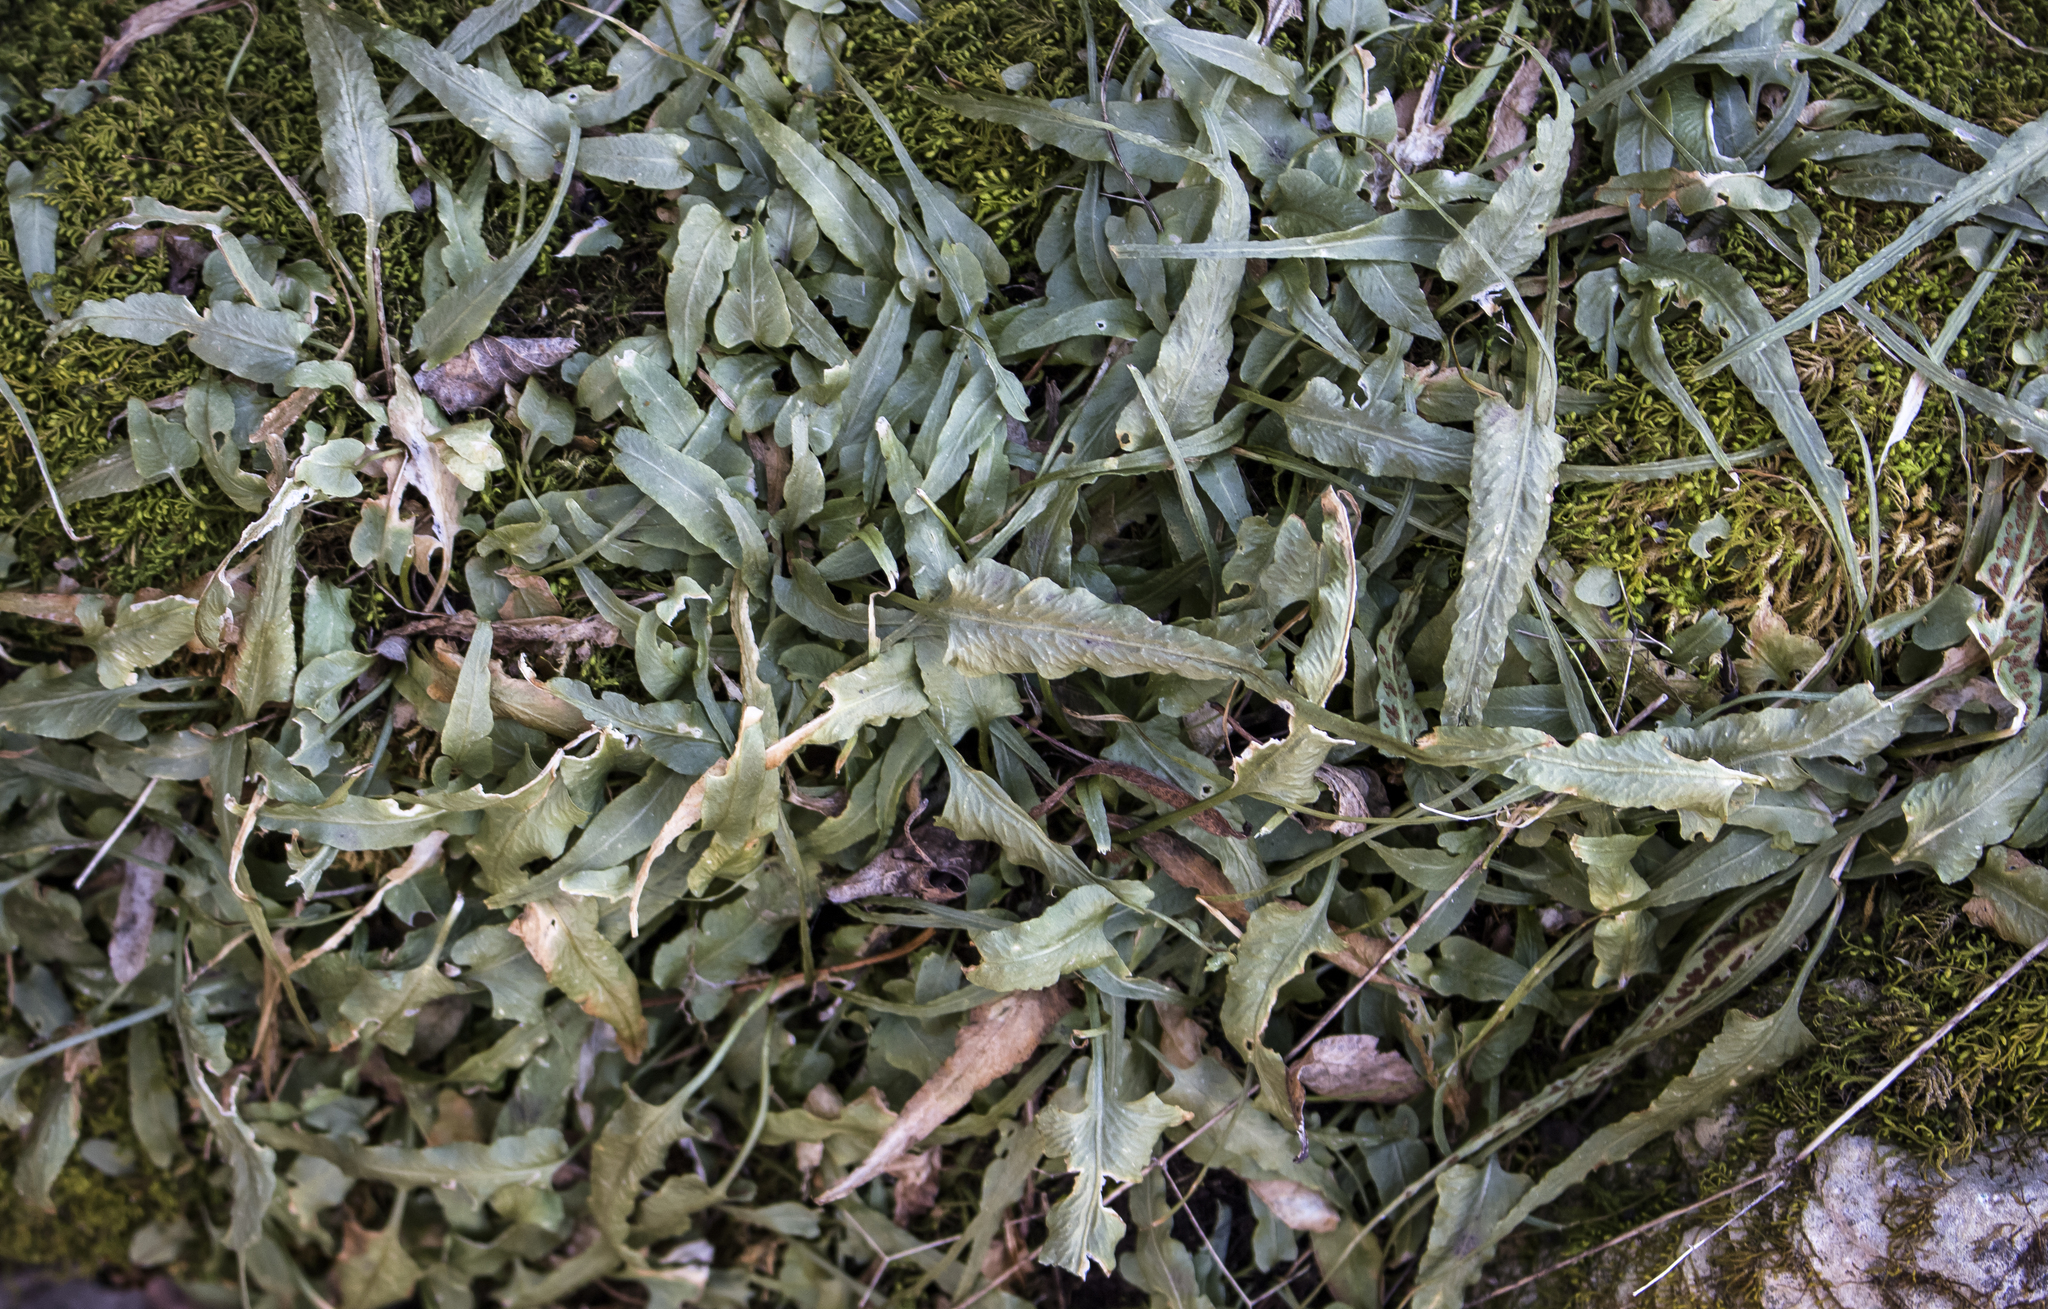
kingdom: Plantae
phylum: Tracheophyta
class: Polypodiopsida
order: Polypodiales
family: Aspleniaceae
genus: Asplenium
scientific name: Asplenium rhizophyllum
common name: Walking fern
